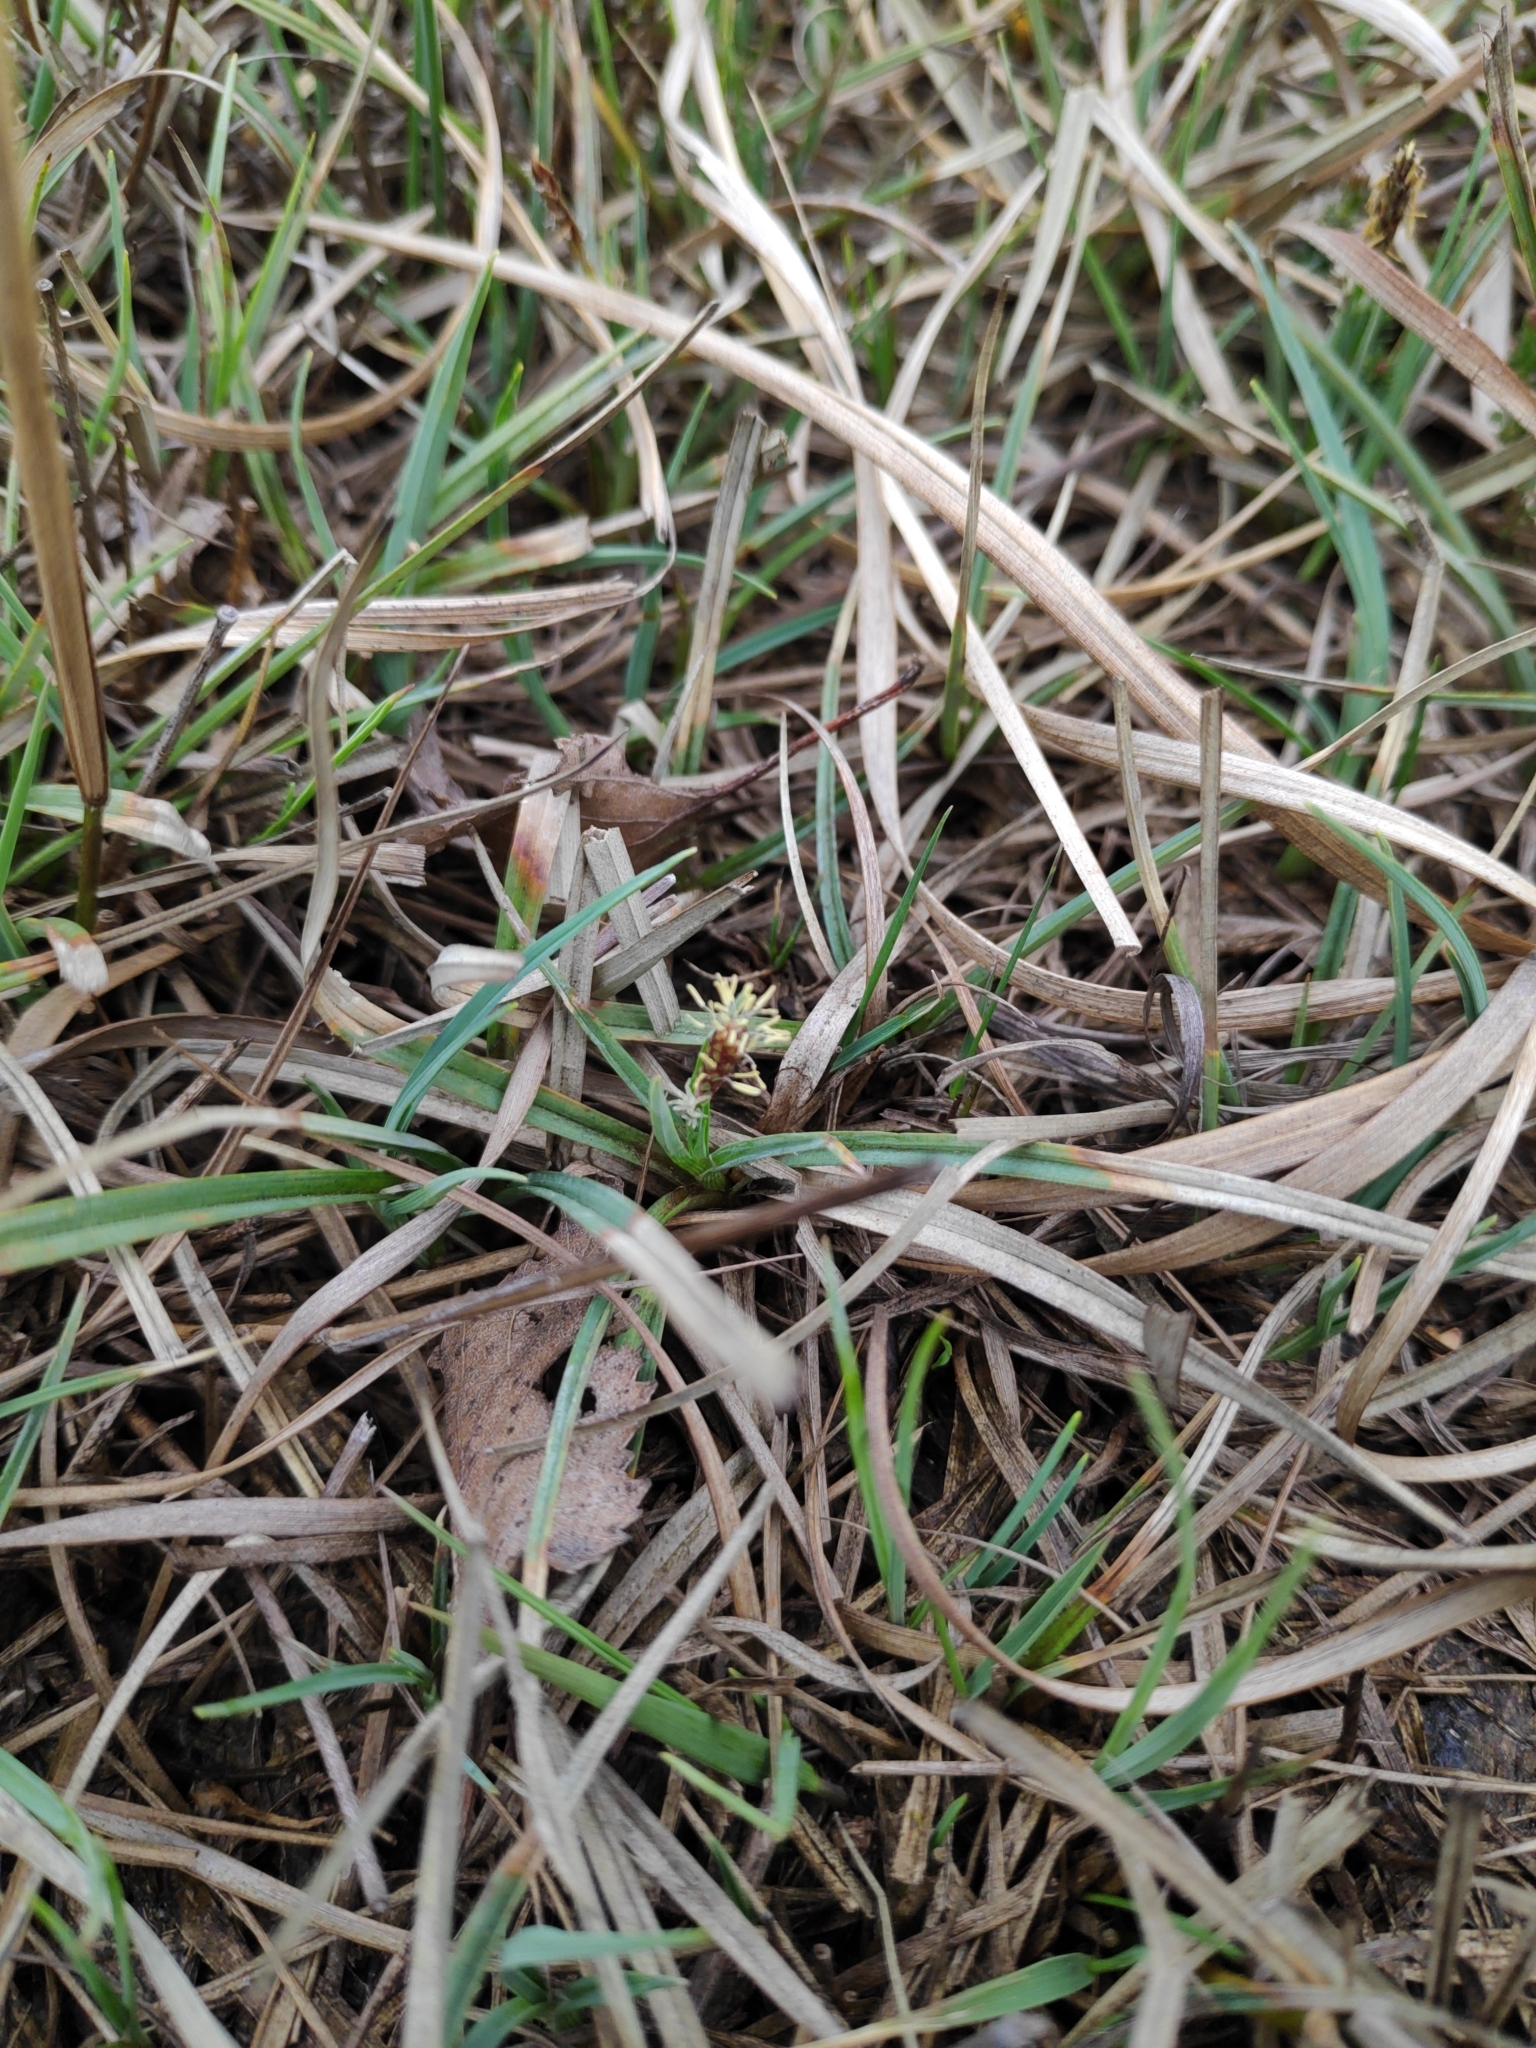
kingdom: Plantae
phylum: Tracheophyta
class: Liliopsida
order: Poales
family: Cyperaceae
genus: Carex
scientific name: Carex panicea
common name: Carnation sedge
